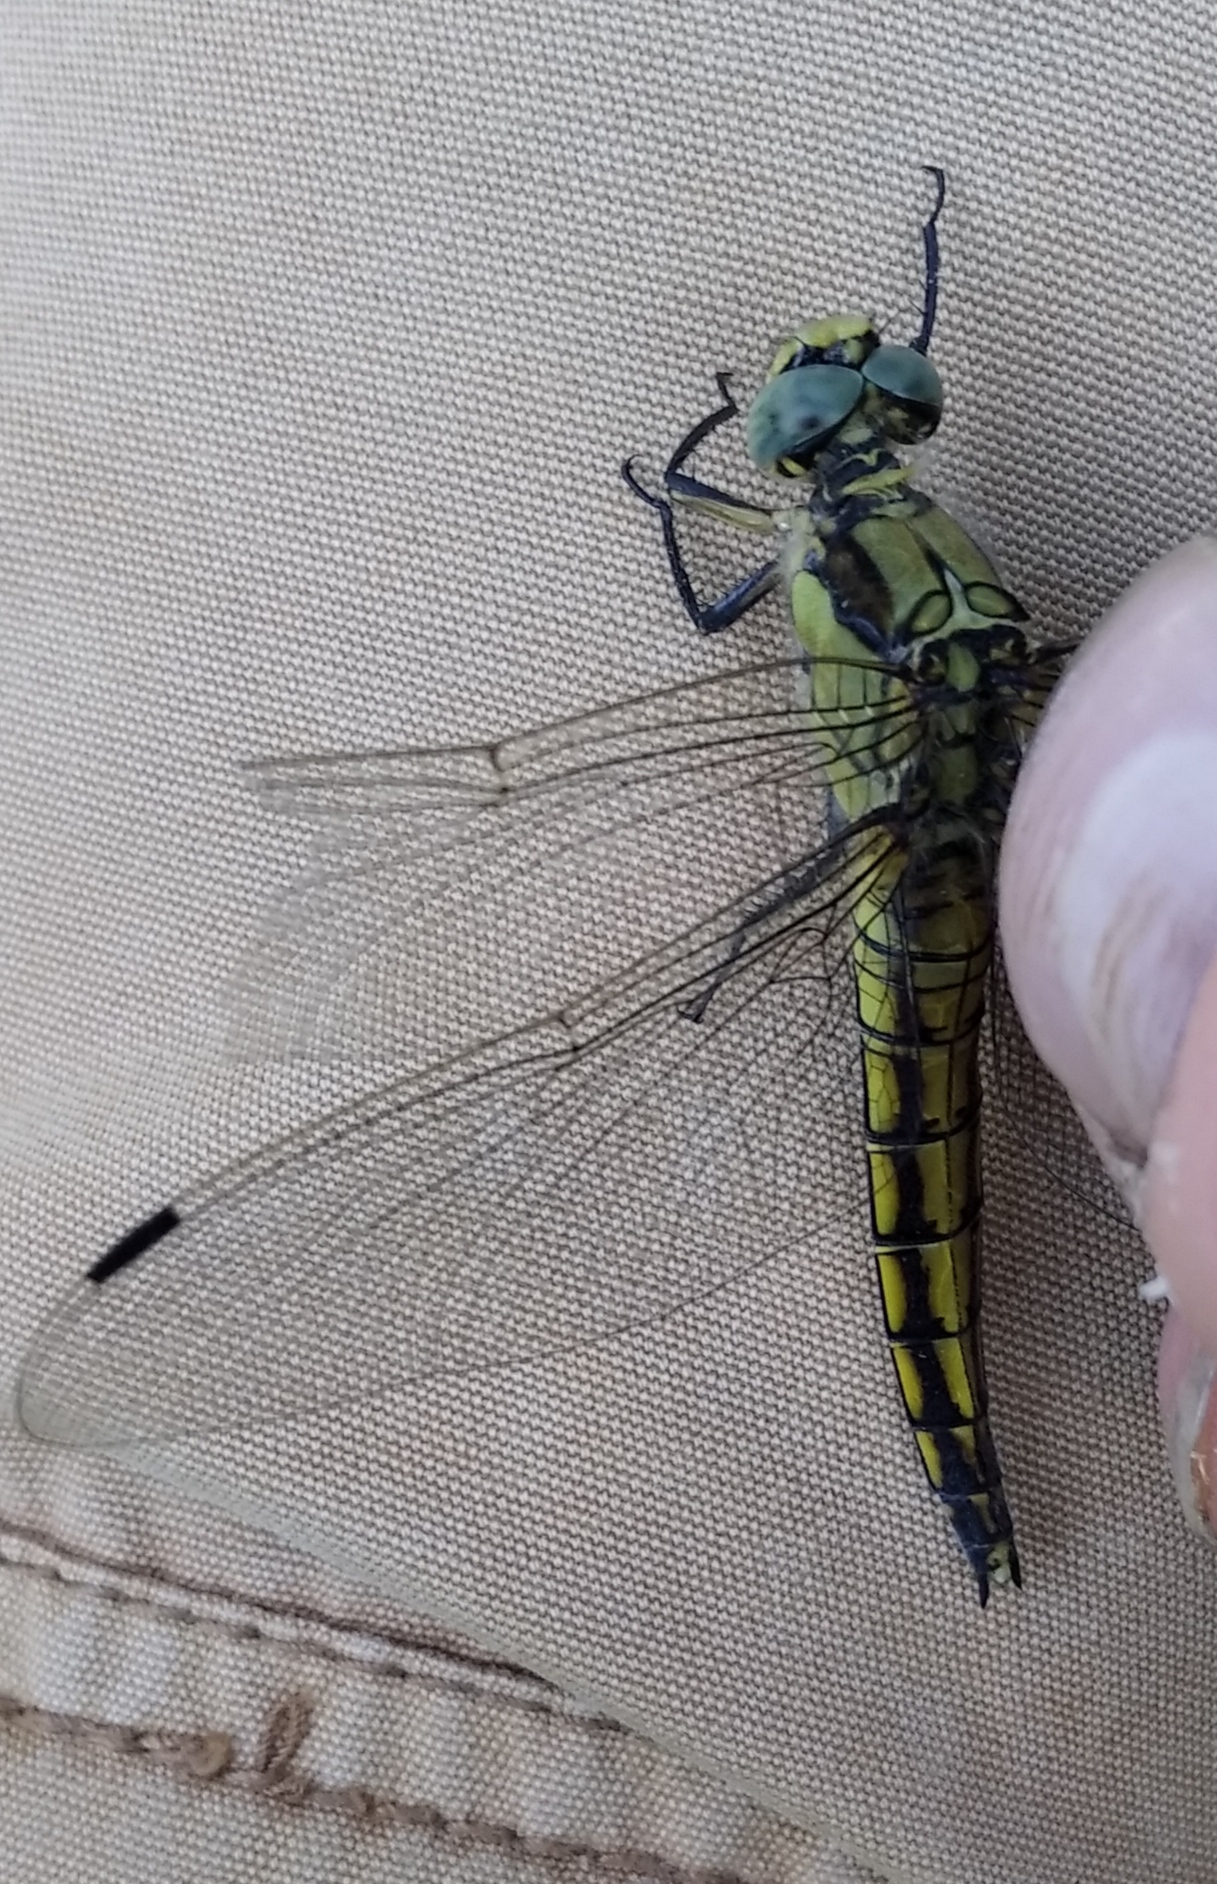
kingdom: Animalia
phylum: Arthropoda
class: Insecta
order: Odonata
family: Libellulidae
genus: Orthetrum
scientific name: Orthetrum cancellatum
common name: Black-tailed skimmer
